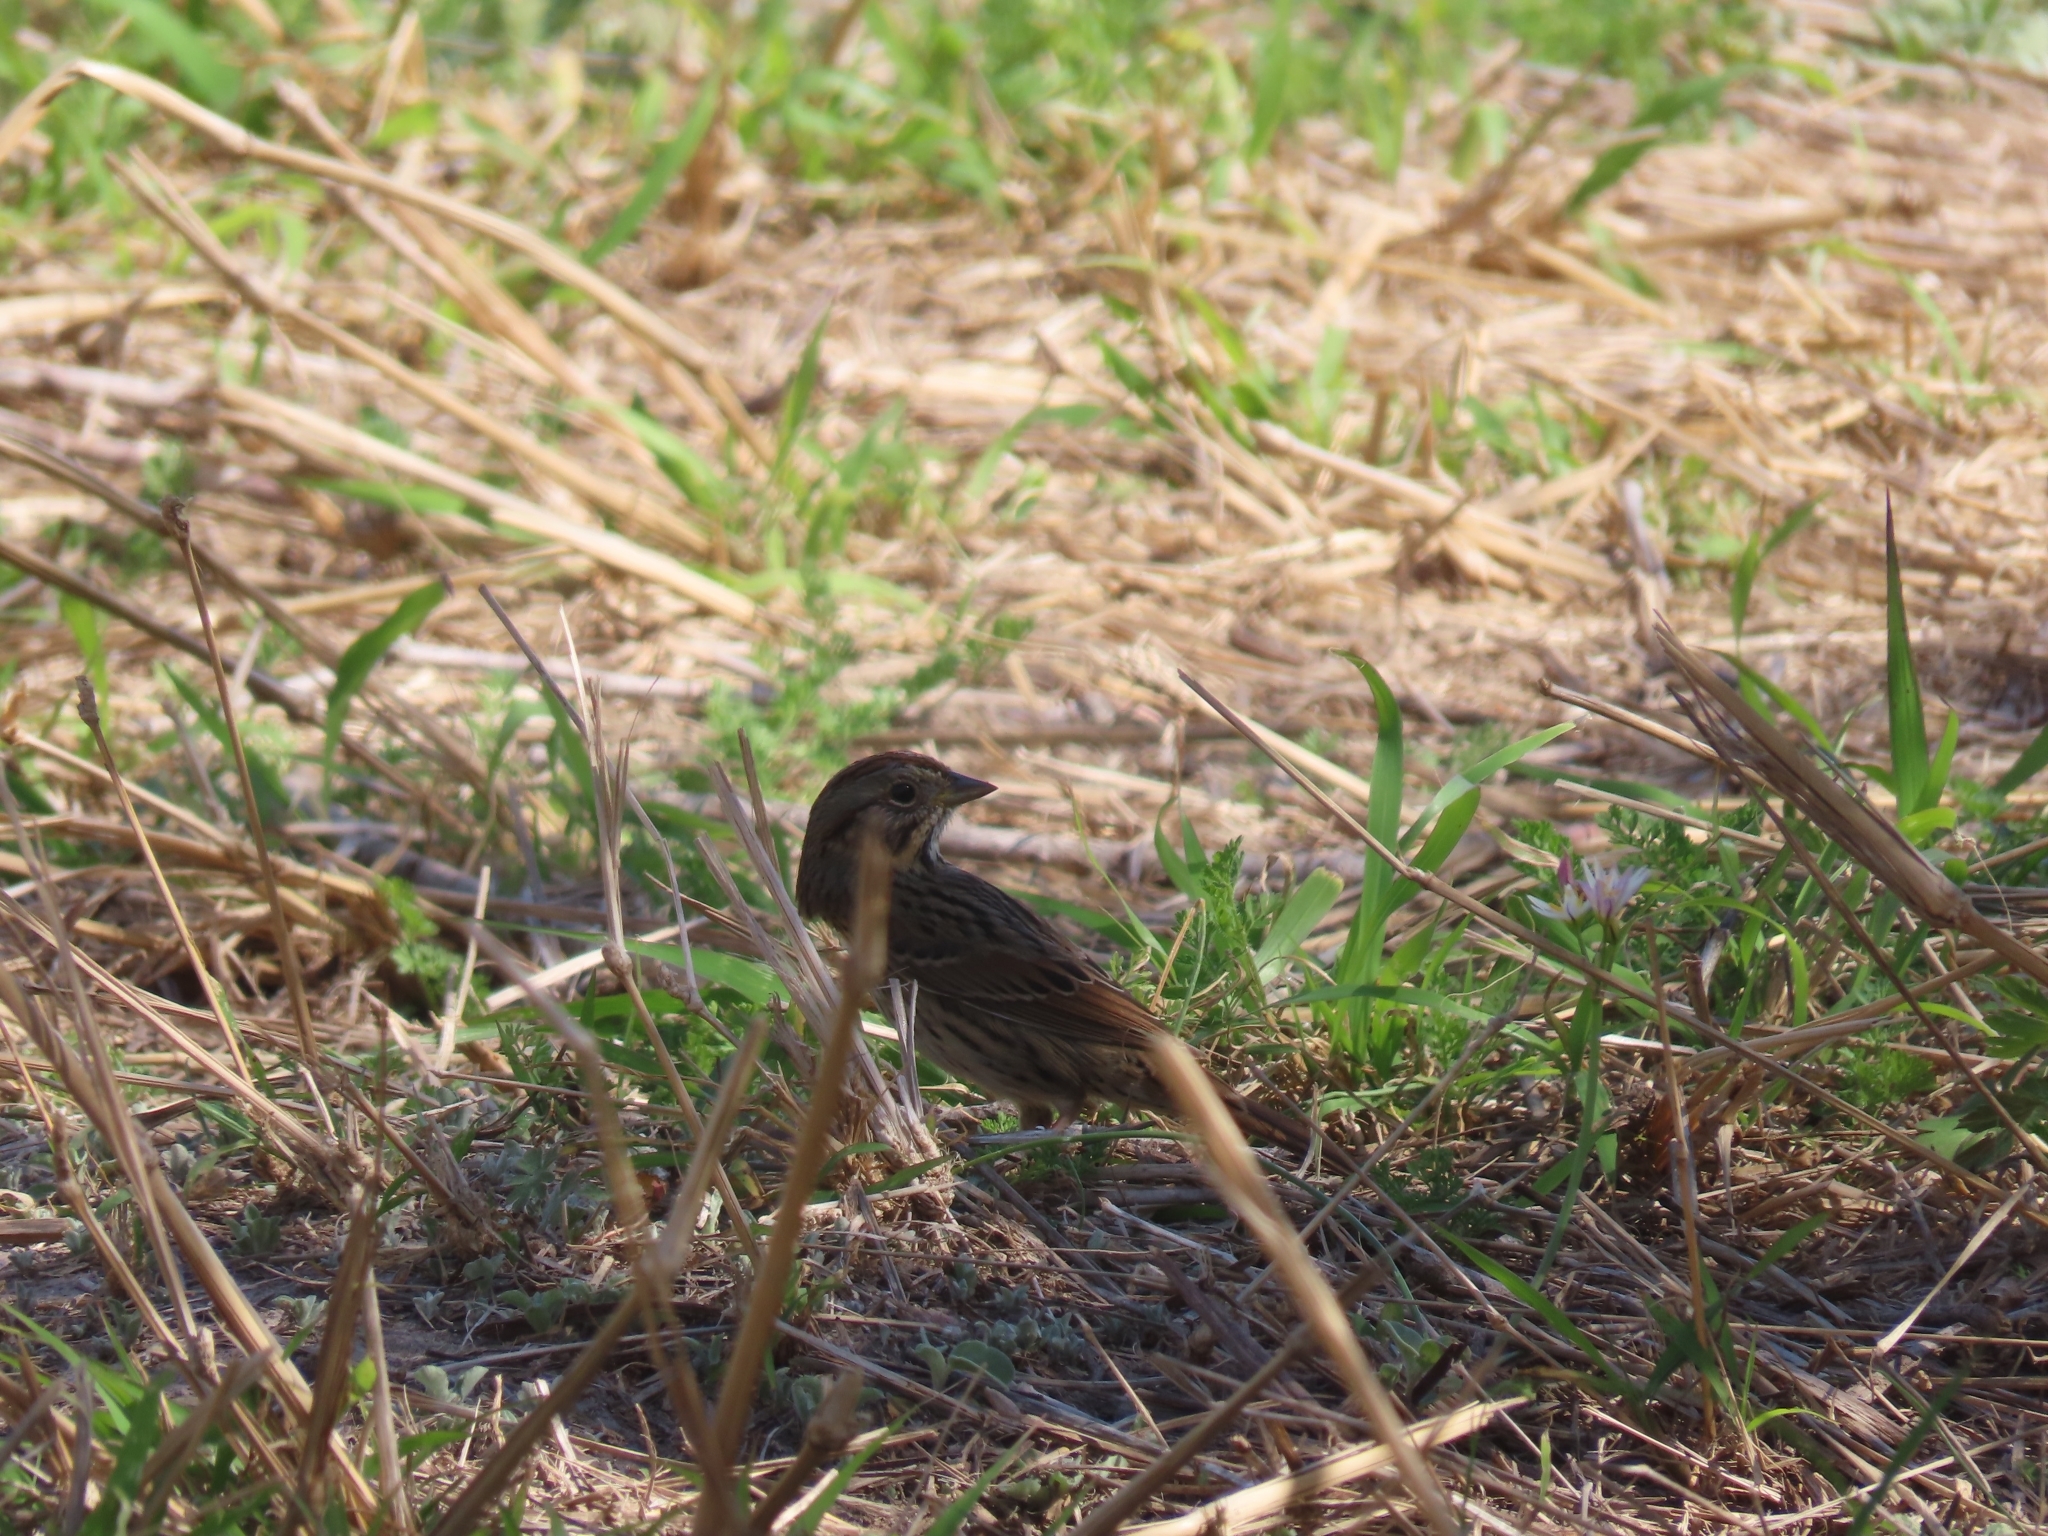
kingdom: Animalia
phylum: Chordata
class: Aves
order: Passeriformes
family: Passerellidae
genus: Melospiza
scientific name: Melospiza lincolnii
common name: Lincoln's sparrow
